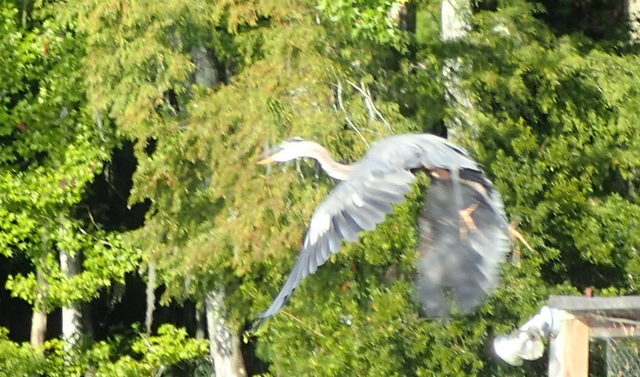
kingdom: Animalia
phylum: Chordata
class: Aves
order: Pelecaniformes
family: Ardeidae
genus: Ardea
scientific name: Ardea herodias
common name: Great blue heron
